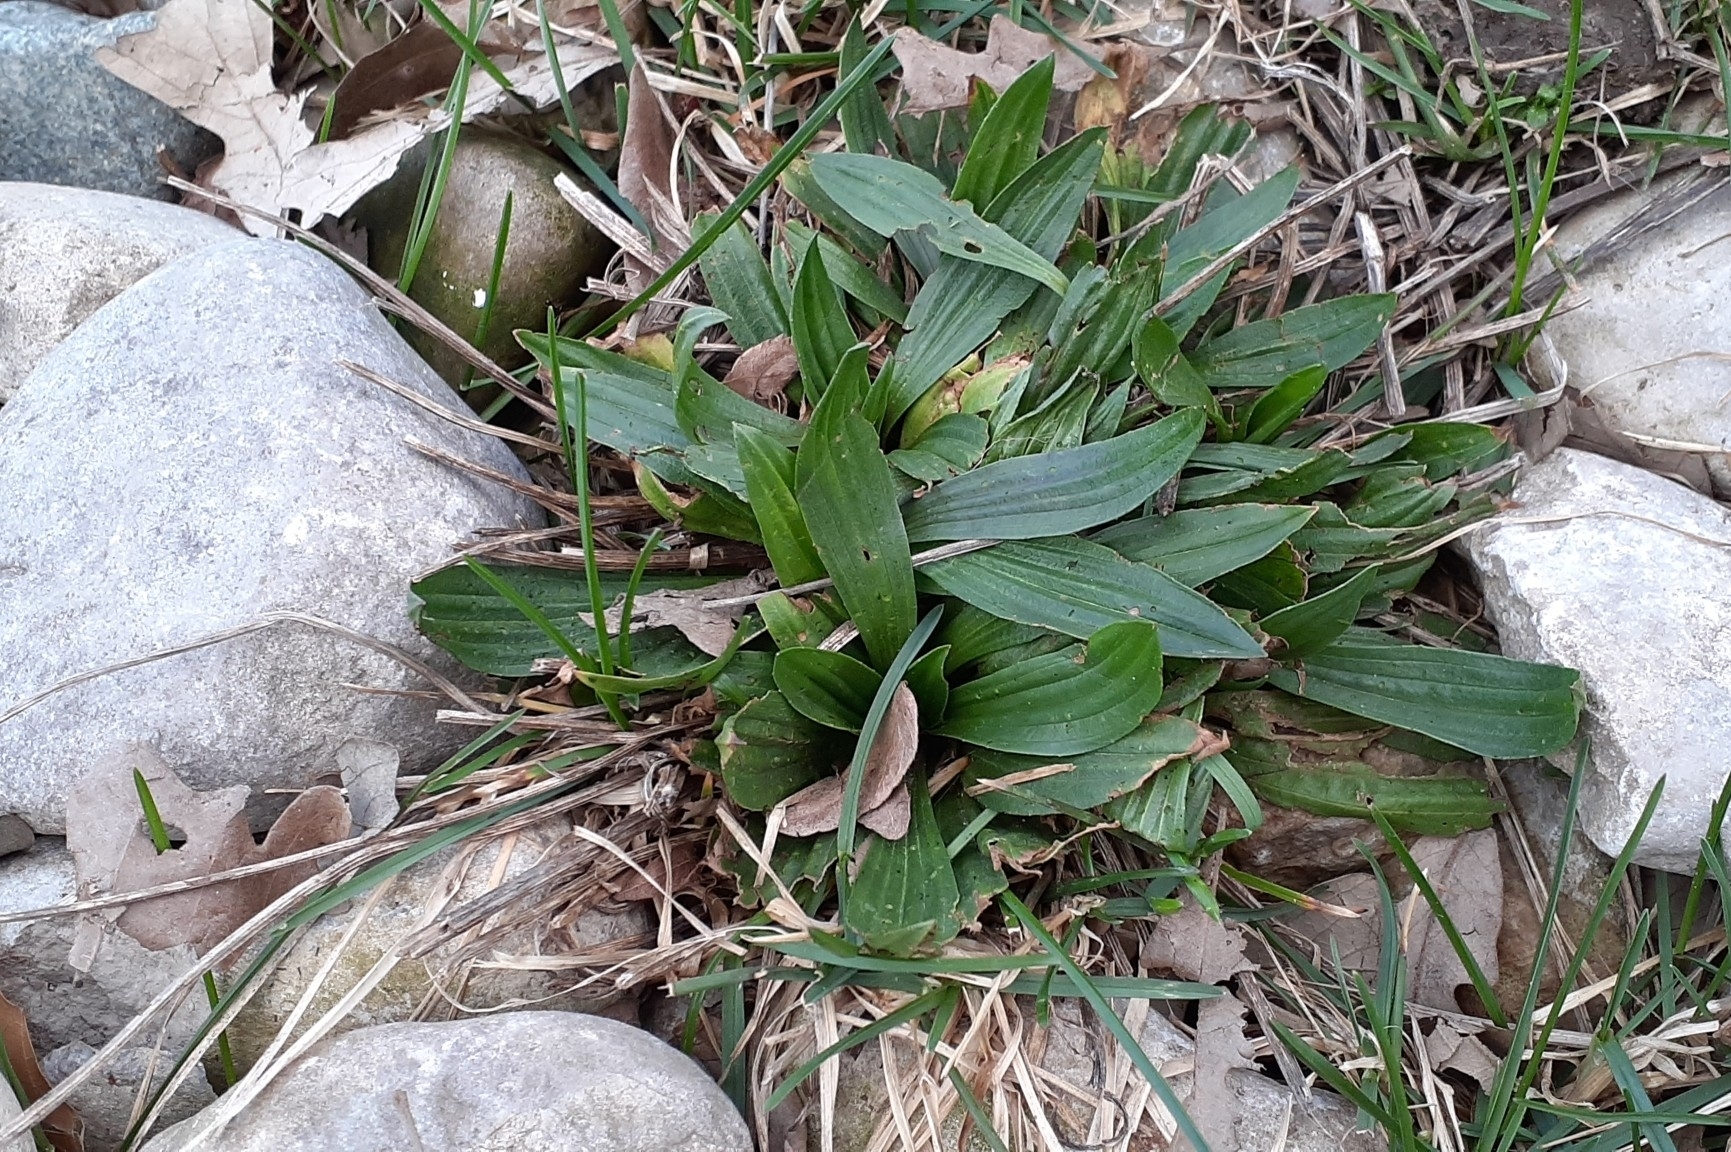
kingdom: Plantae
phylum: Tracheophyta
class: Magnoliopsida
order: Lamiales
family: Plantaginaceae
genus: Plantago
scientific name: Plantago lanceolata
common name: Ribwort plantain
